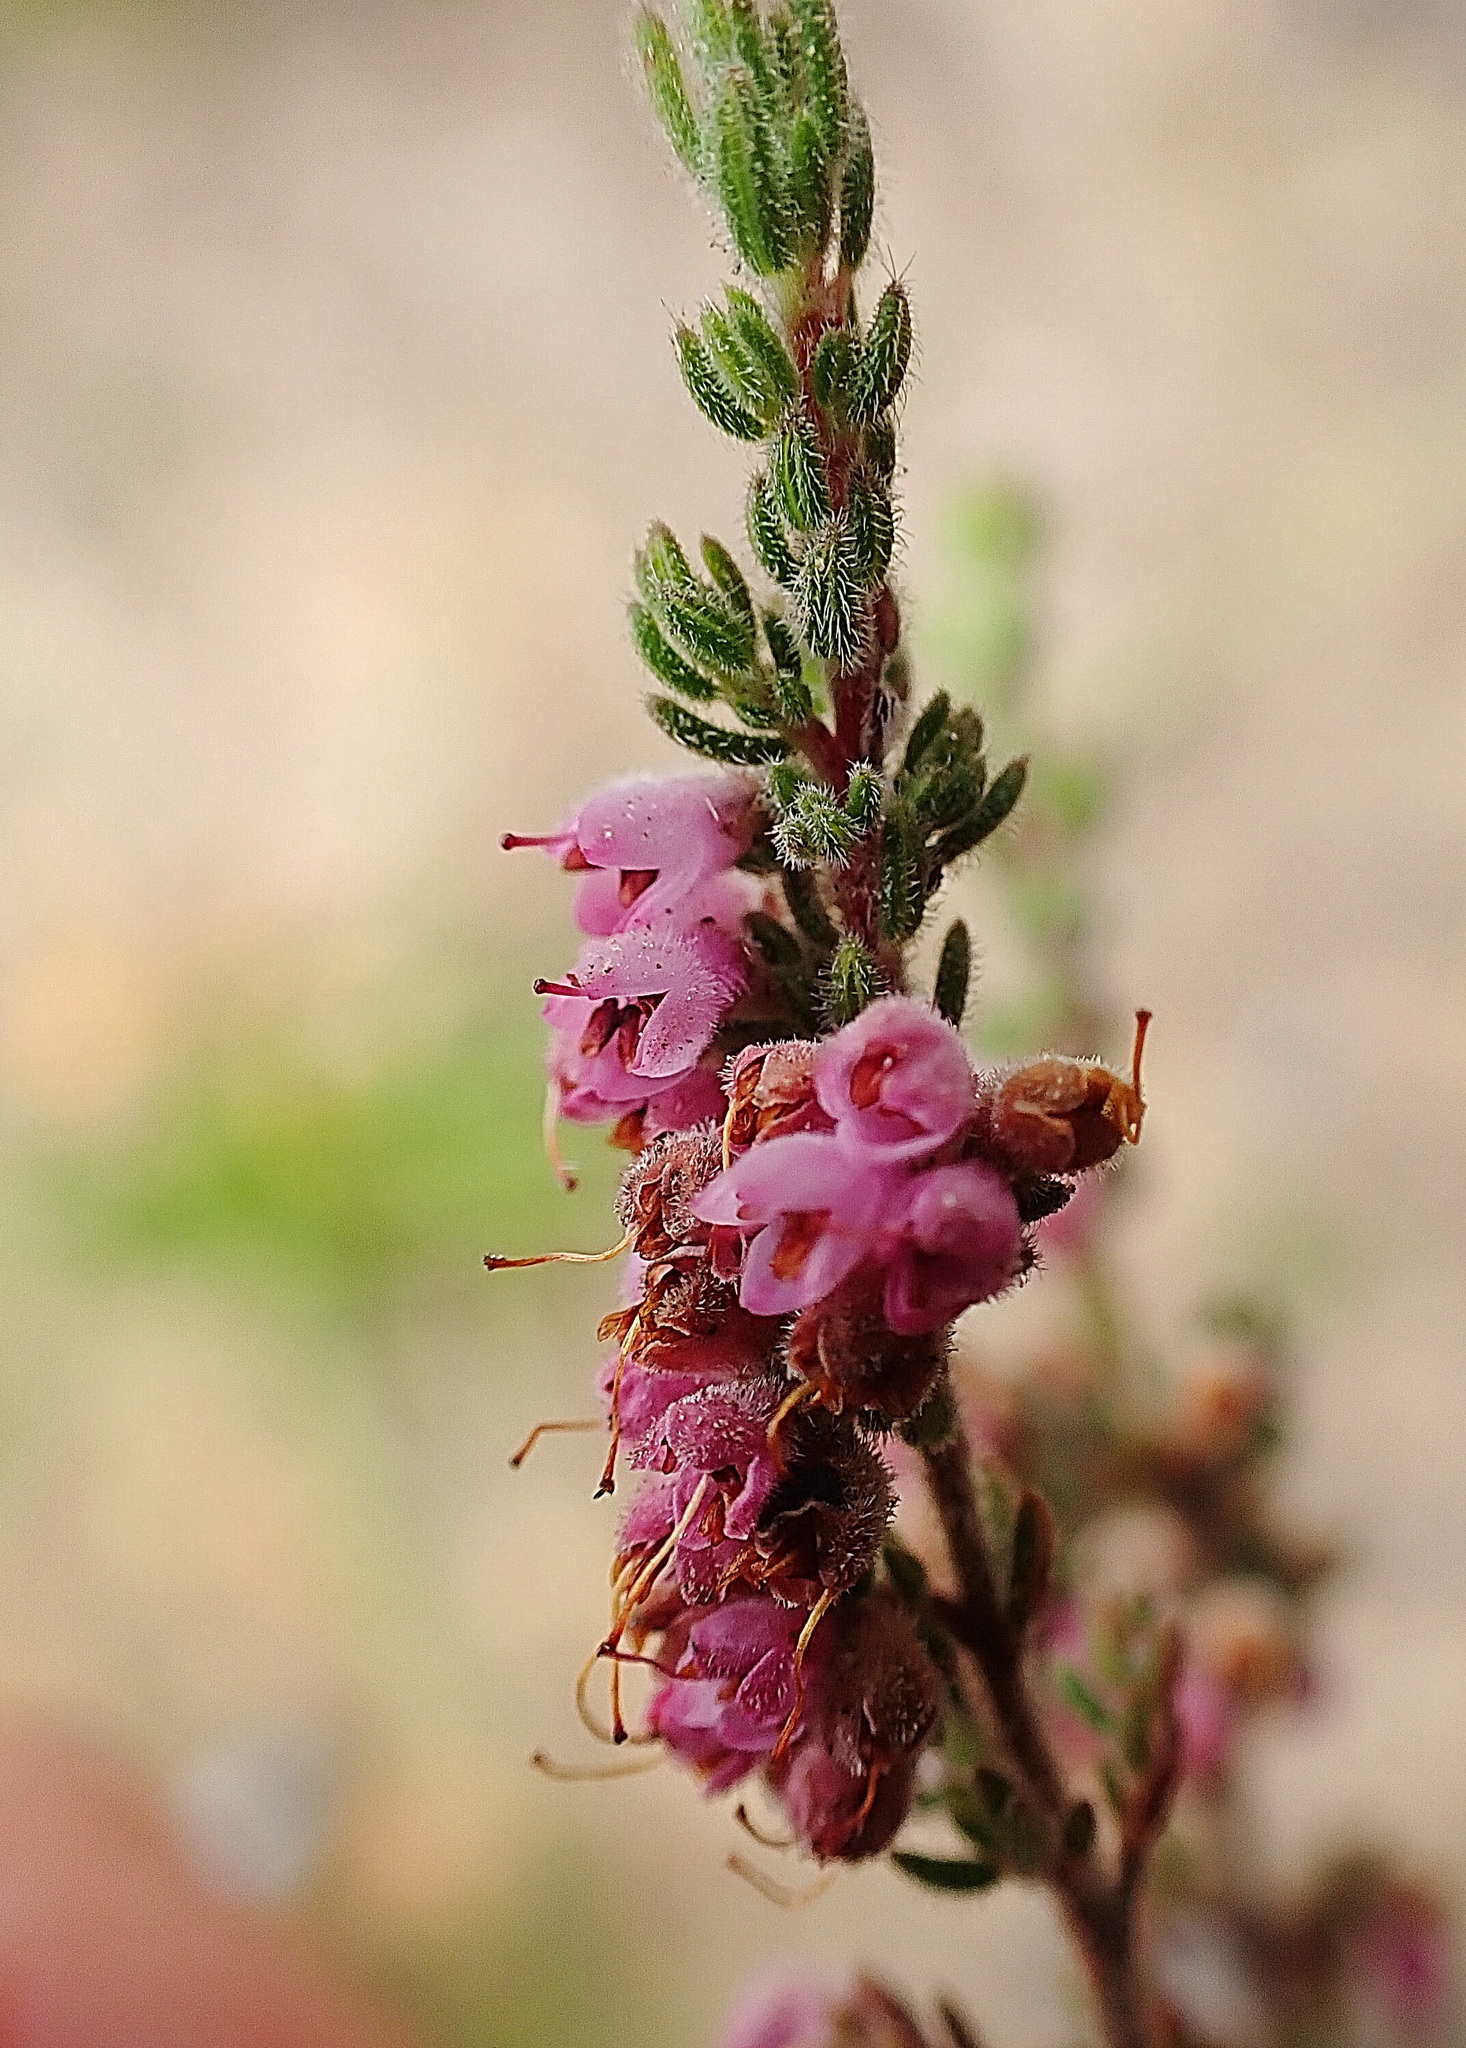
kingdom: Plantae
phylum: Tracheophyta
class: Magnoliopsida
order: Ericales
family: Ericaceae
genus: Erica
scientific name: Erica vallis-fluminis
